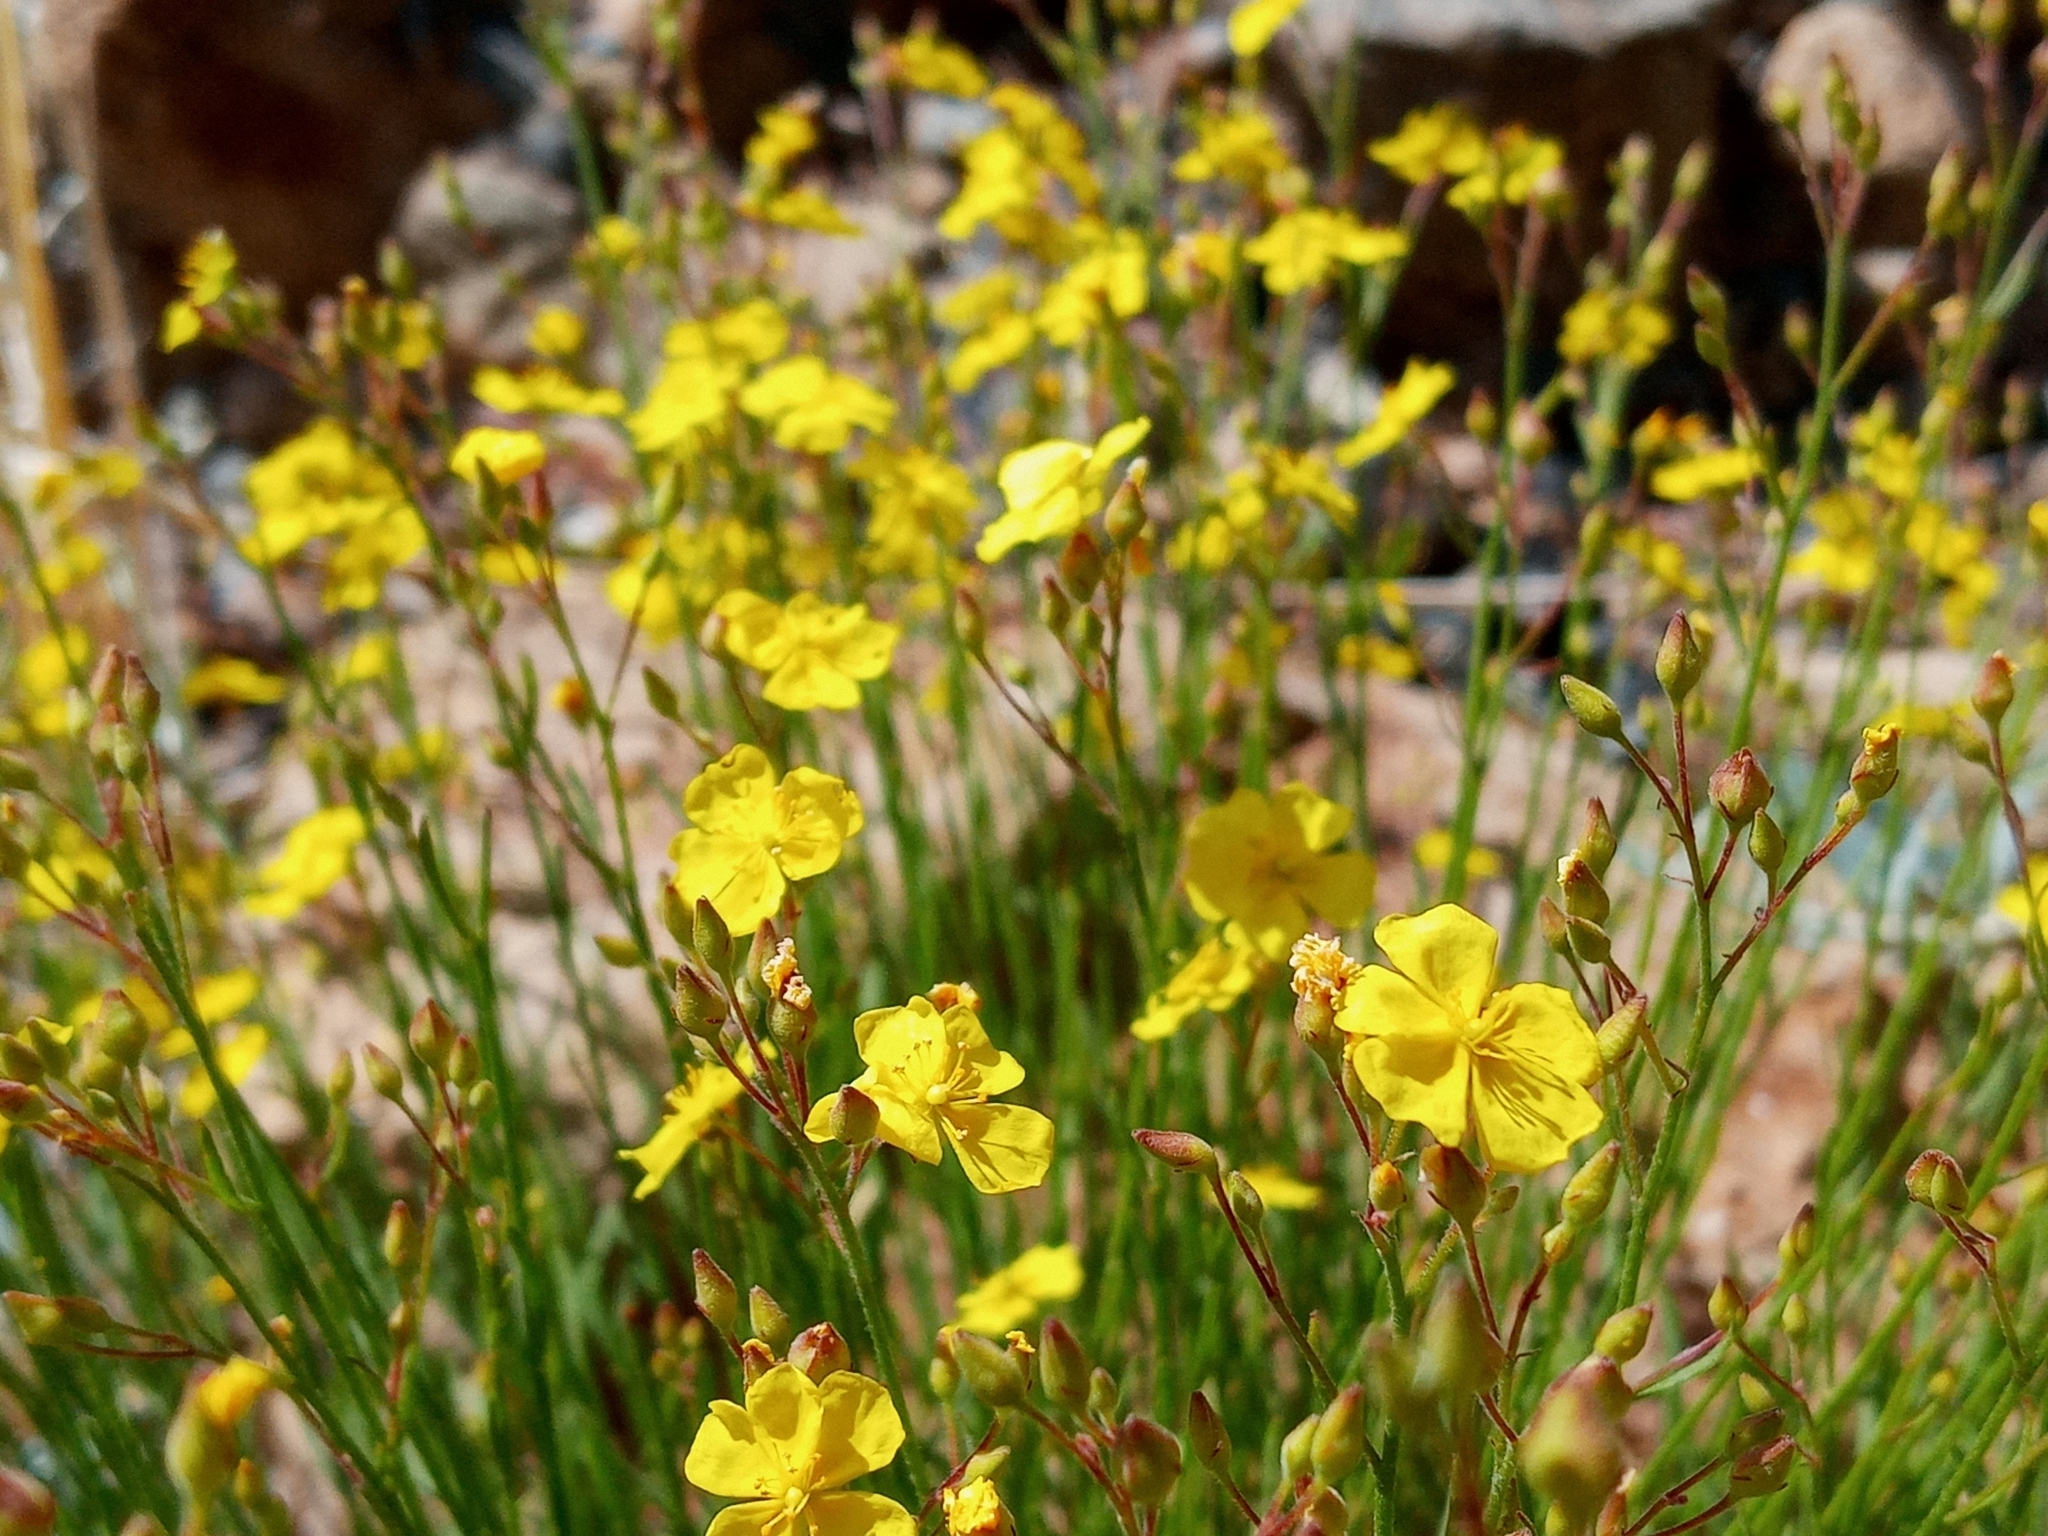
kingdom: Plantae
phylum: Tracheophyta
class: Magnoliopsida
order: Malvales
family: Cistaceae
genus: Crocanthemum
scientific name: Crocanthemum scoparium
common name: Broom-rose
